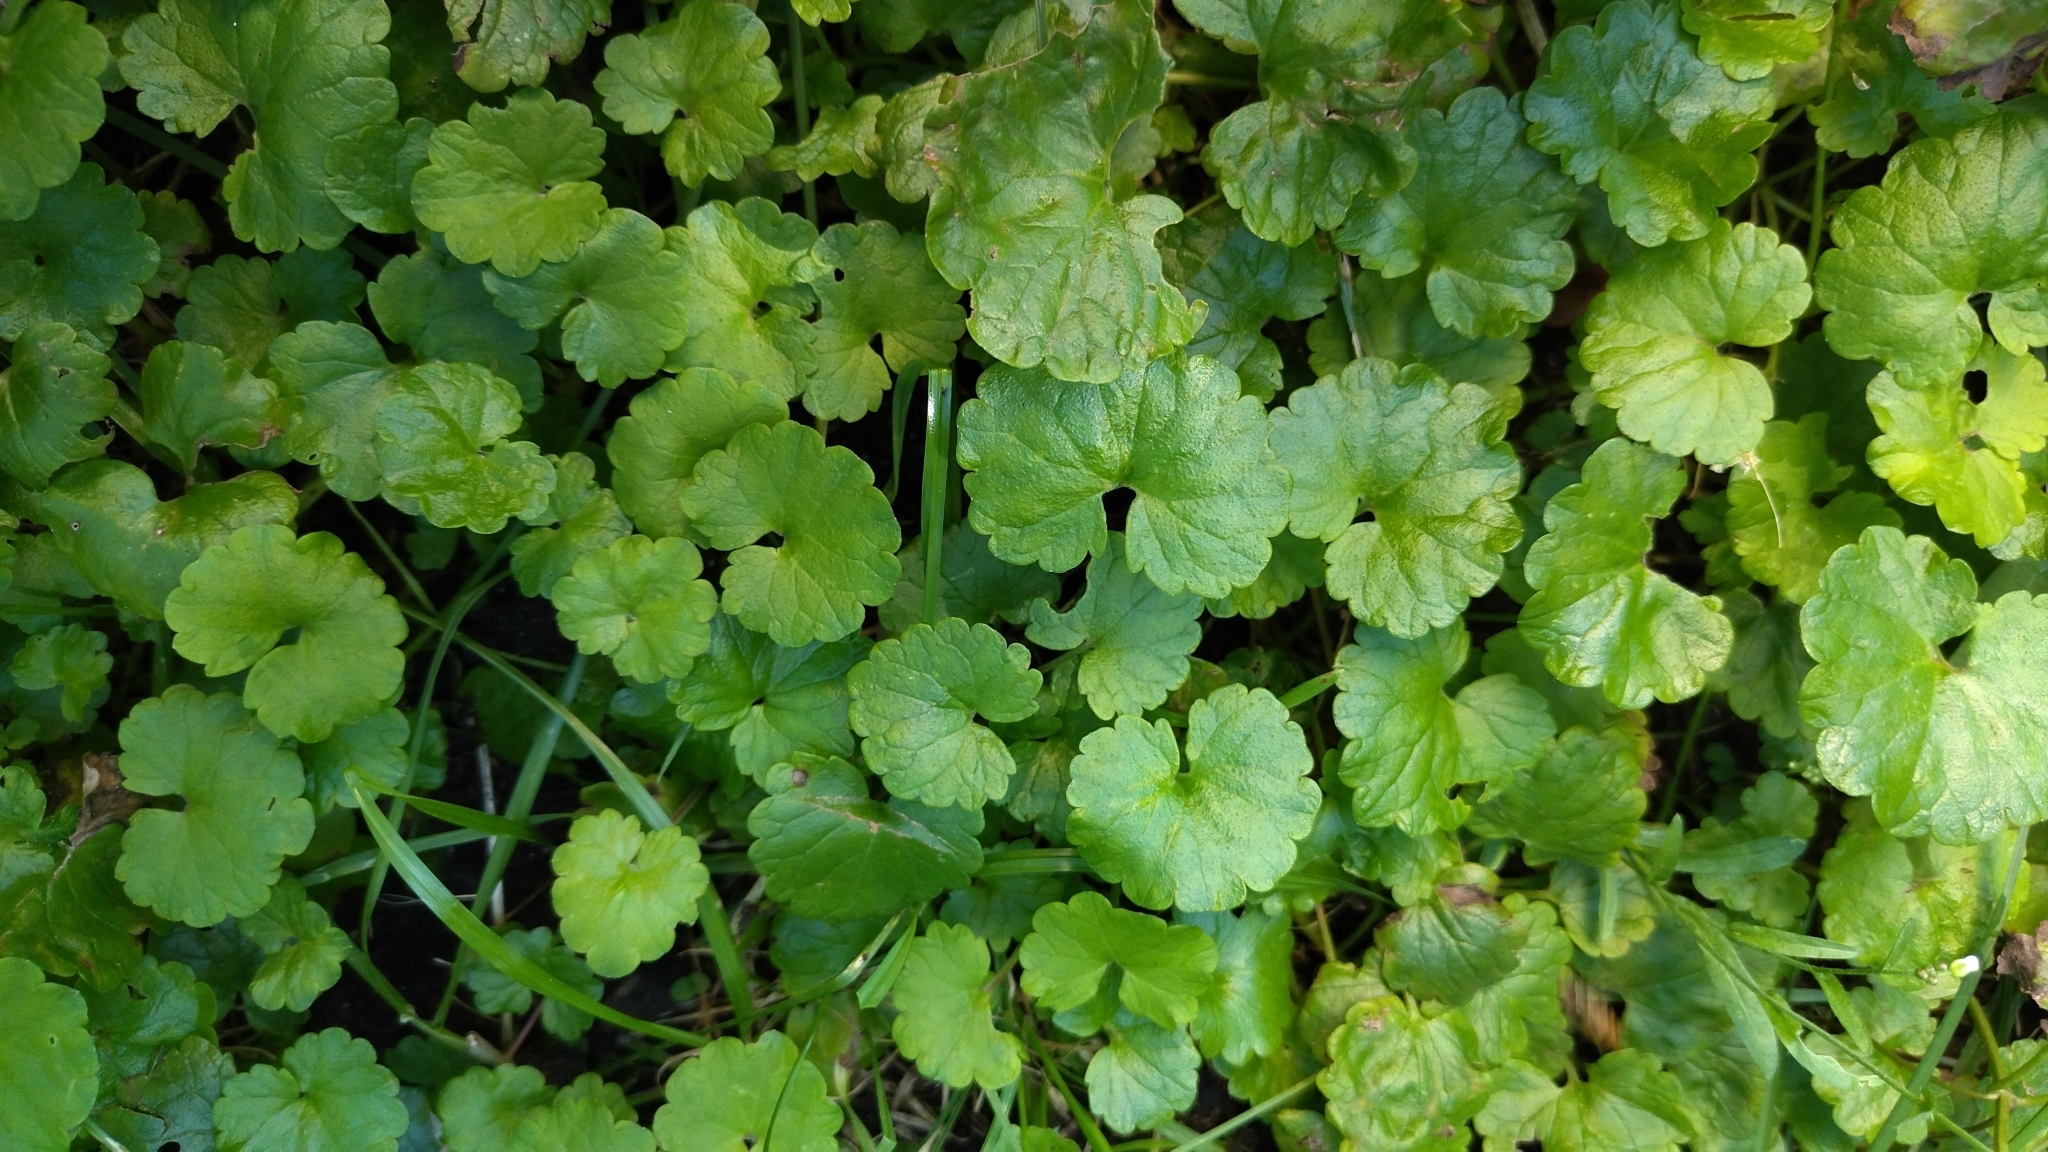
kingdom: Plantae
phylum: Tracheophyta
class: Magnoliopsida
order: Lamiales
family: Lamiaceae
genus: Glechoma
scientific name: Glechoma hederacea
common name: Ground ivy
